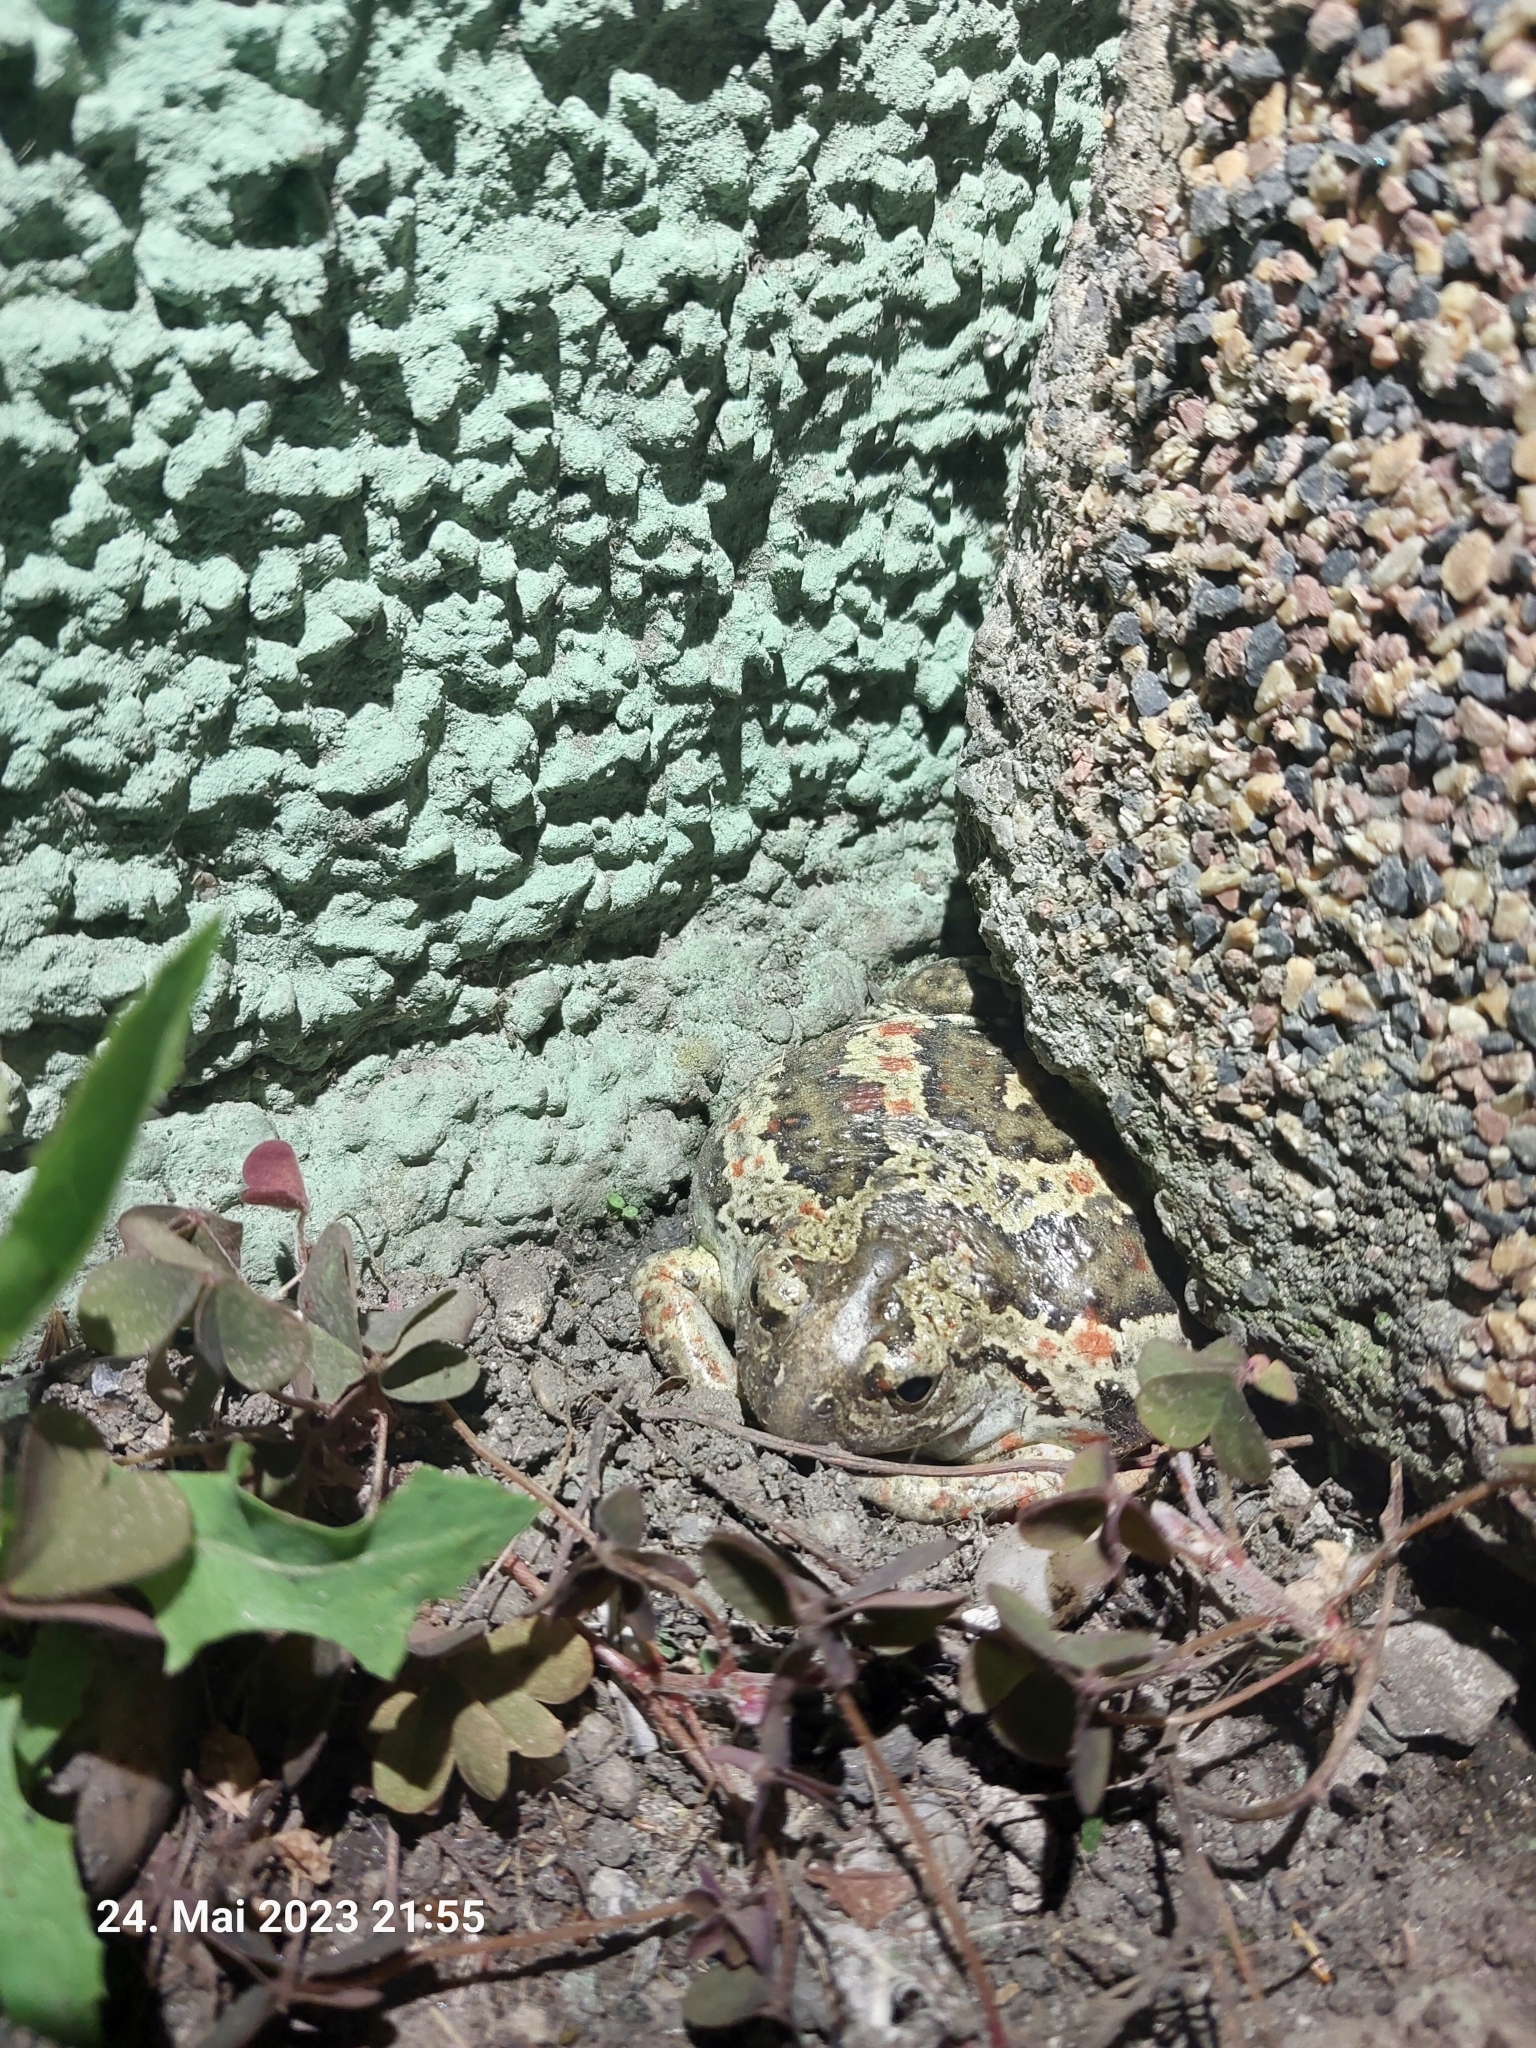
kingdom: Animalia
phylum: Chordata
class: Amphibia
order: Anura
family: Pelobatidae
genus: Pelobates
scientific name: Pelobates fuscus
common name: Common eurasian spadefoot toad
